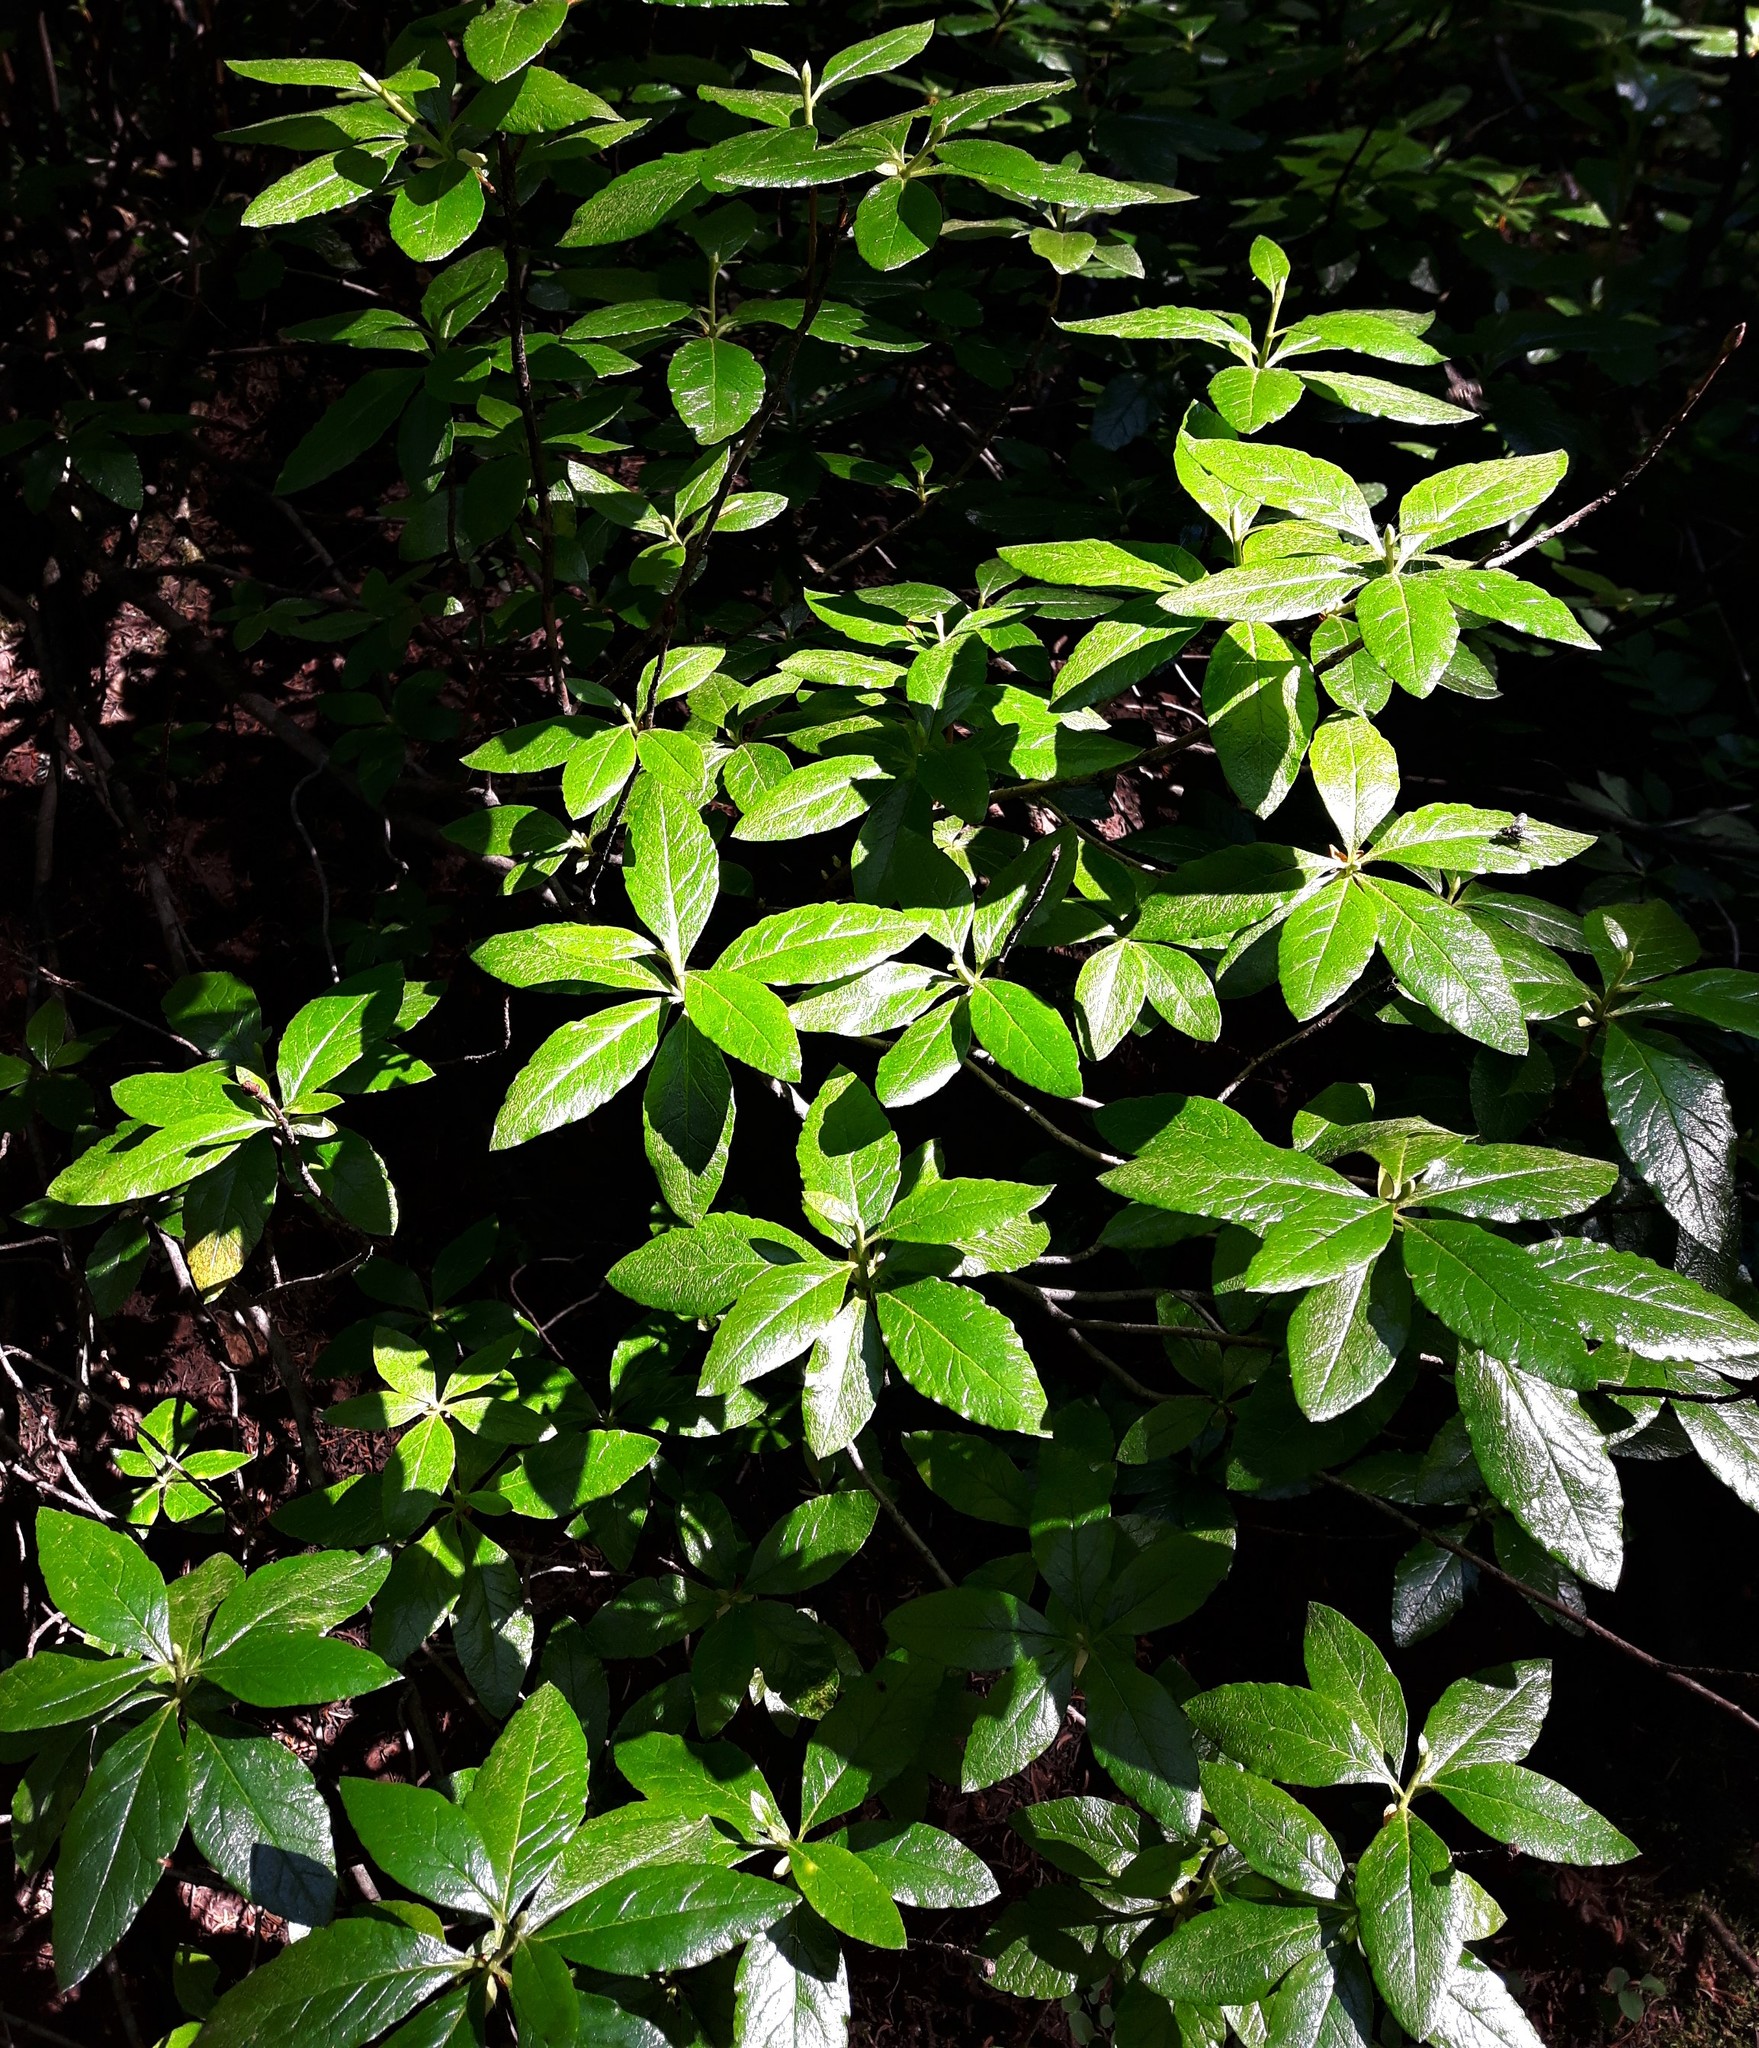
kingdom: Plantae
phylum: Tracheophyta
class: Magnoliopsida
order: Ericales
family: Ericaceae
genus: Rhododendron
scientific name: Rhododendron albiflorum
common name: White rhododendron
